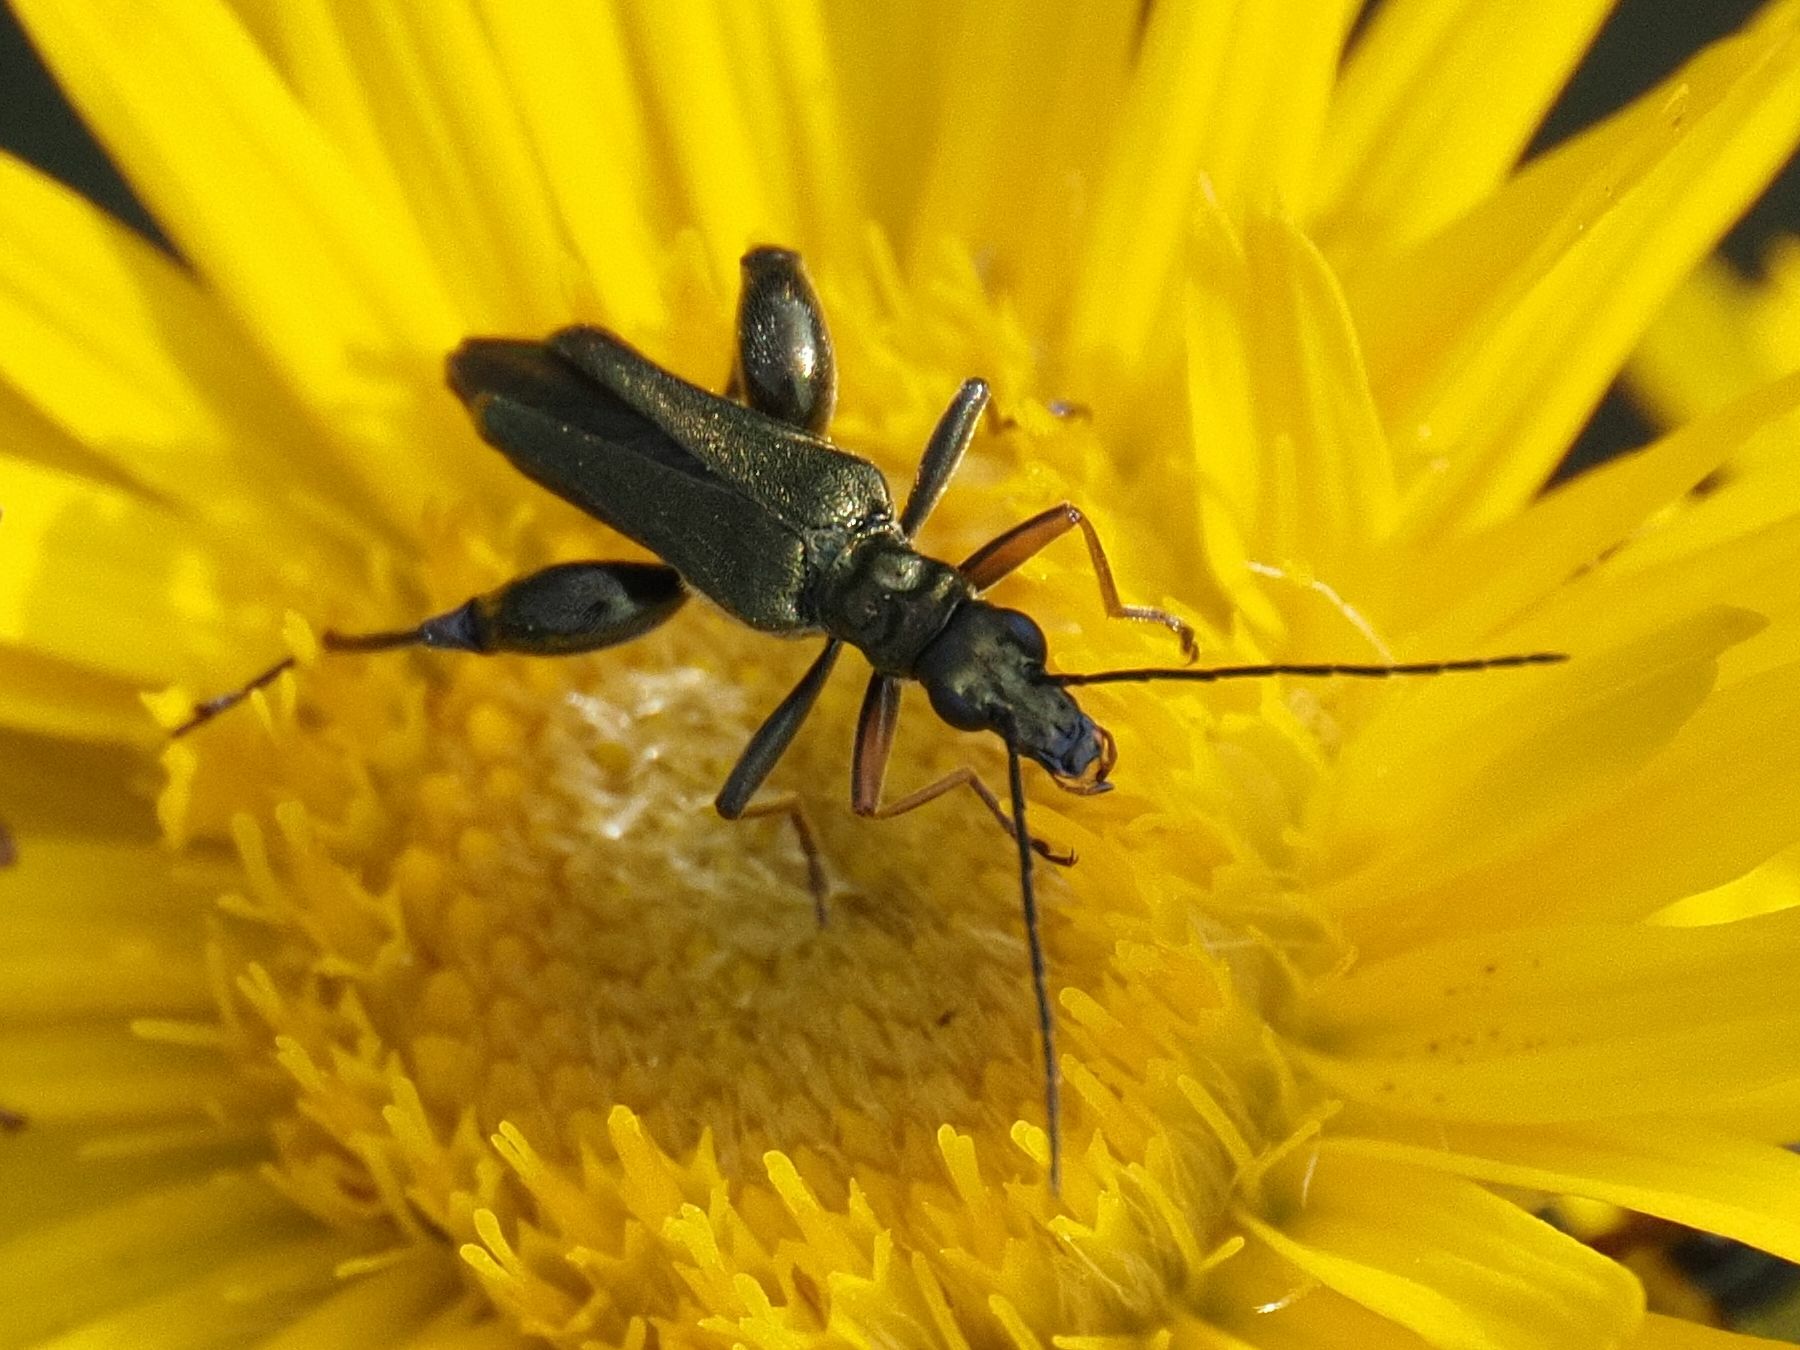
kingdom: Animalia
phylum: Arthropoda
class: Insecta
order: Coleoptera
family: Oedemeridae
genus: Oedemera
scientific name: Oedemera flavipes
